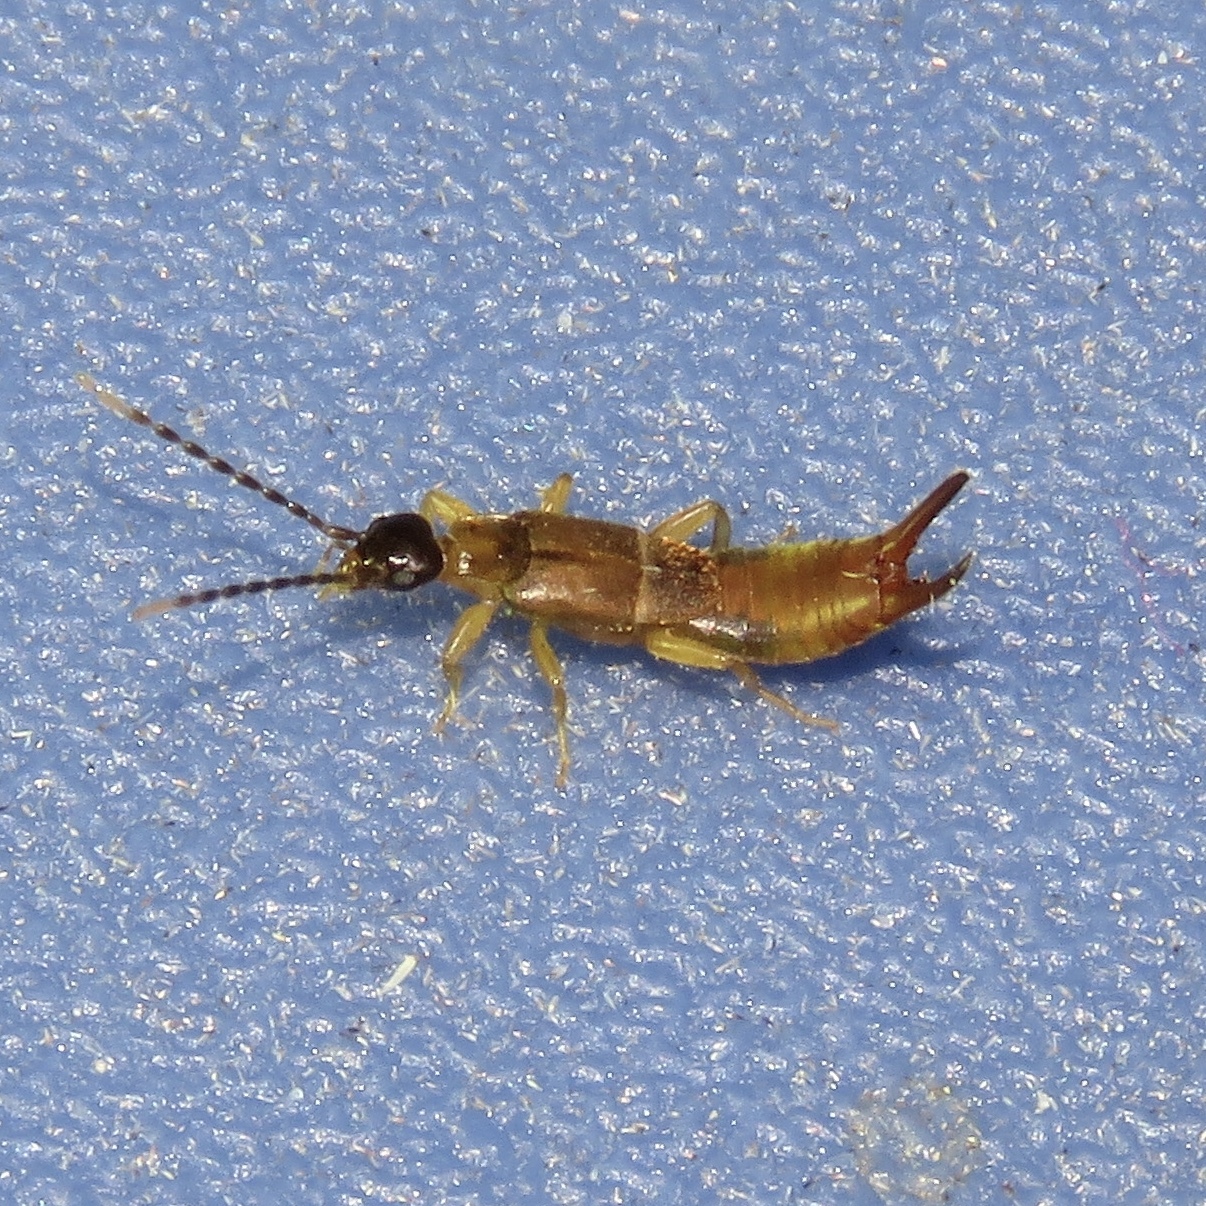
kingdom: Animalia
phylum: Arthropoda
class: Insecta
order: Dermaptera
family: Spongiphoridae
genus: Labia
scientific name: Labia minor
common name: Lesser earwig
